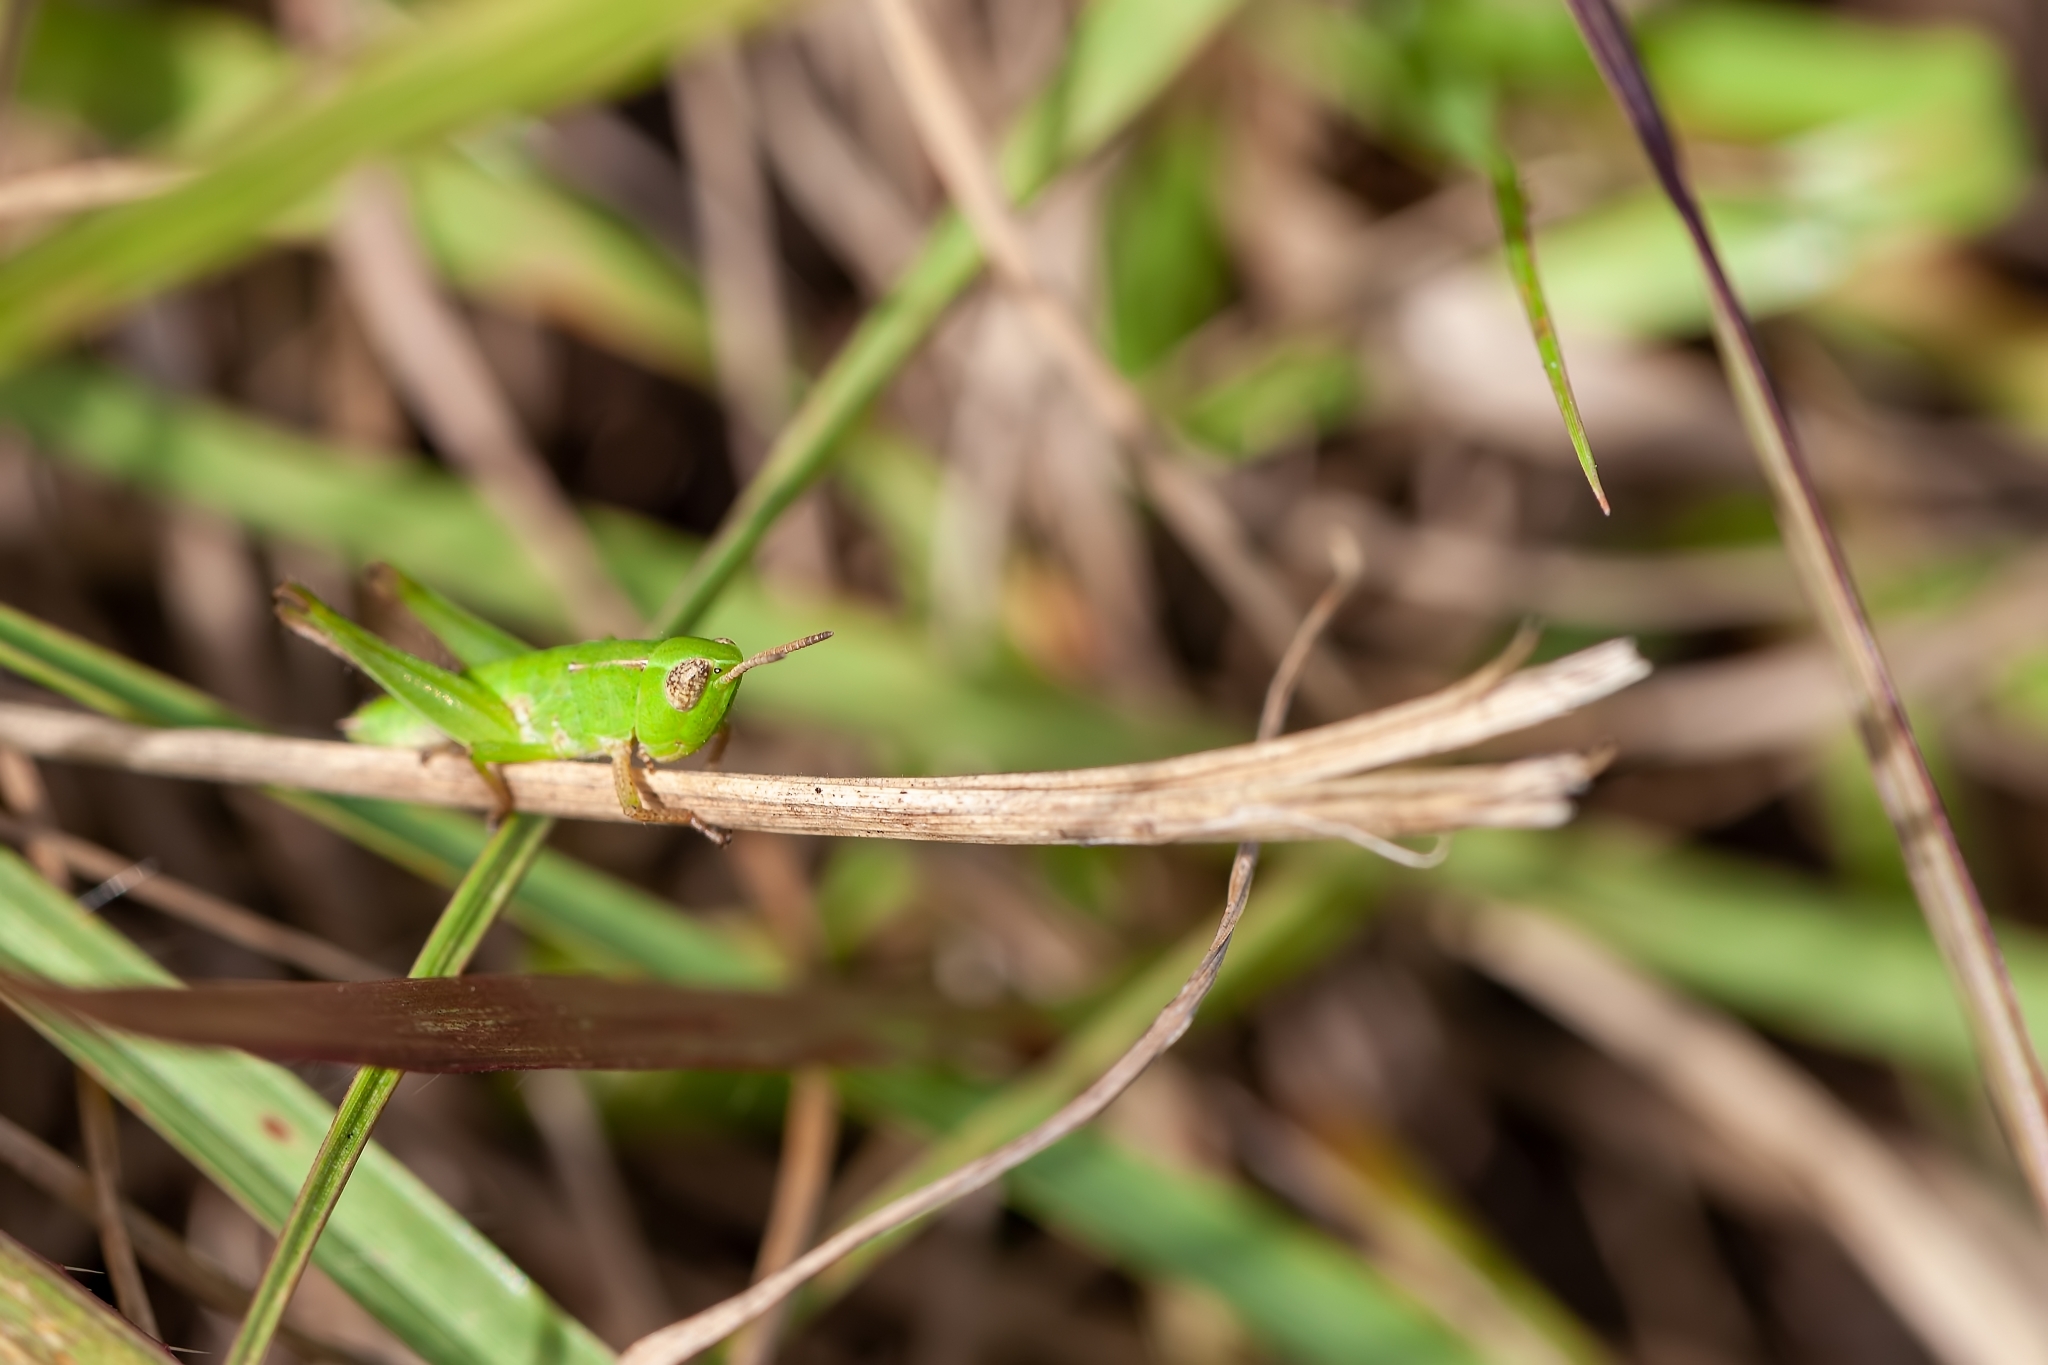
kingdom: Animalia
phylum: Arthropoda
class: Insecta
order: Orthoptera
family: Acrididae
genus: Dichromorpha
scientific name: Dichromorpha viridis
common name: Short-winged green grasshopper
